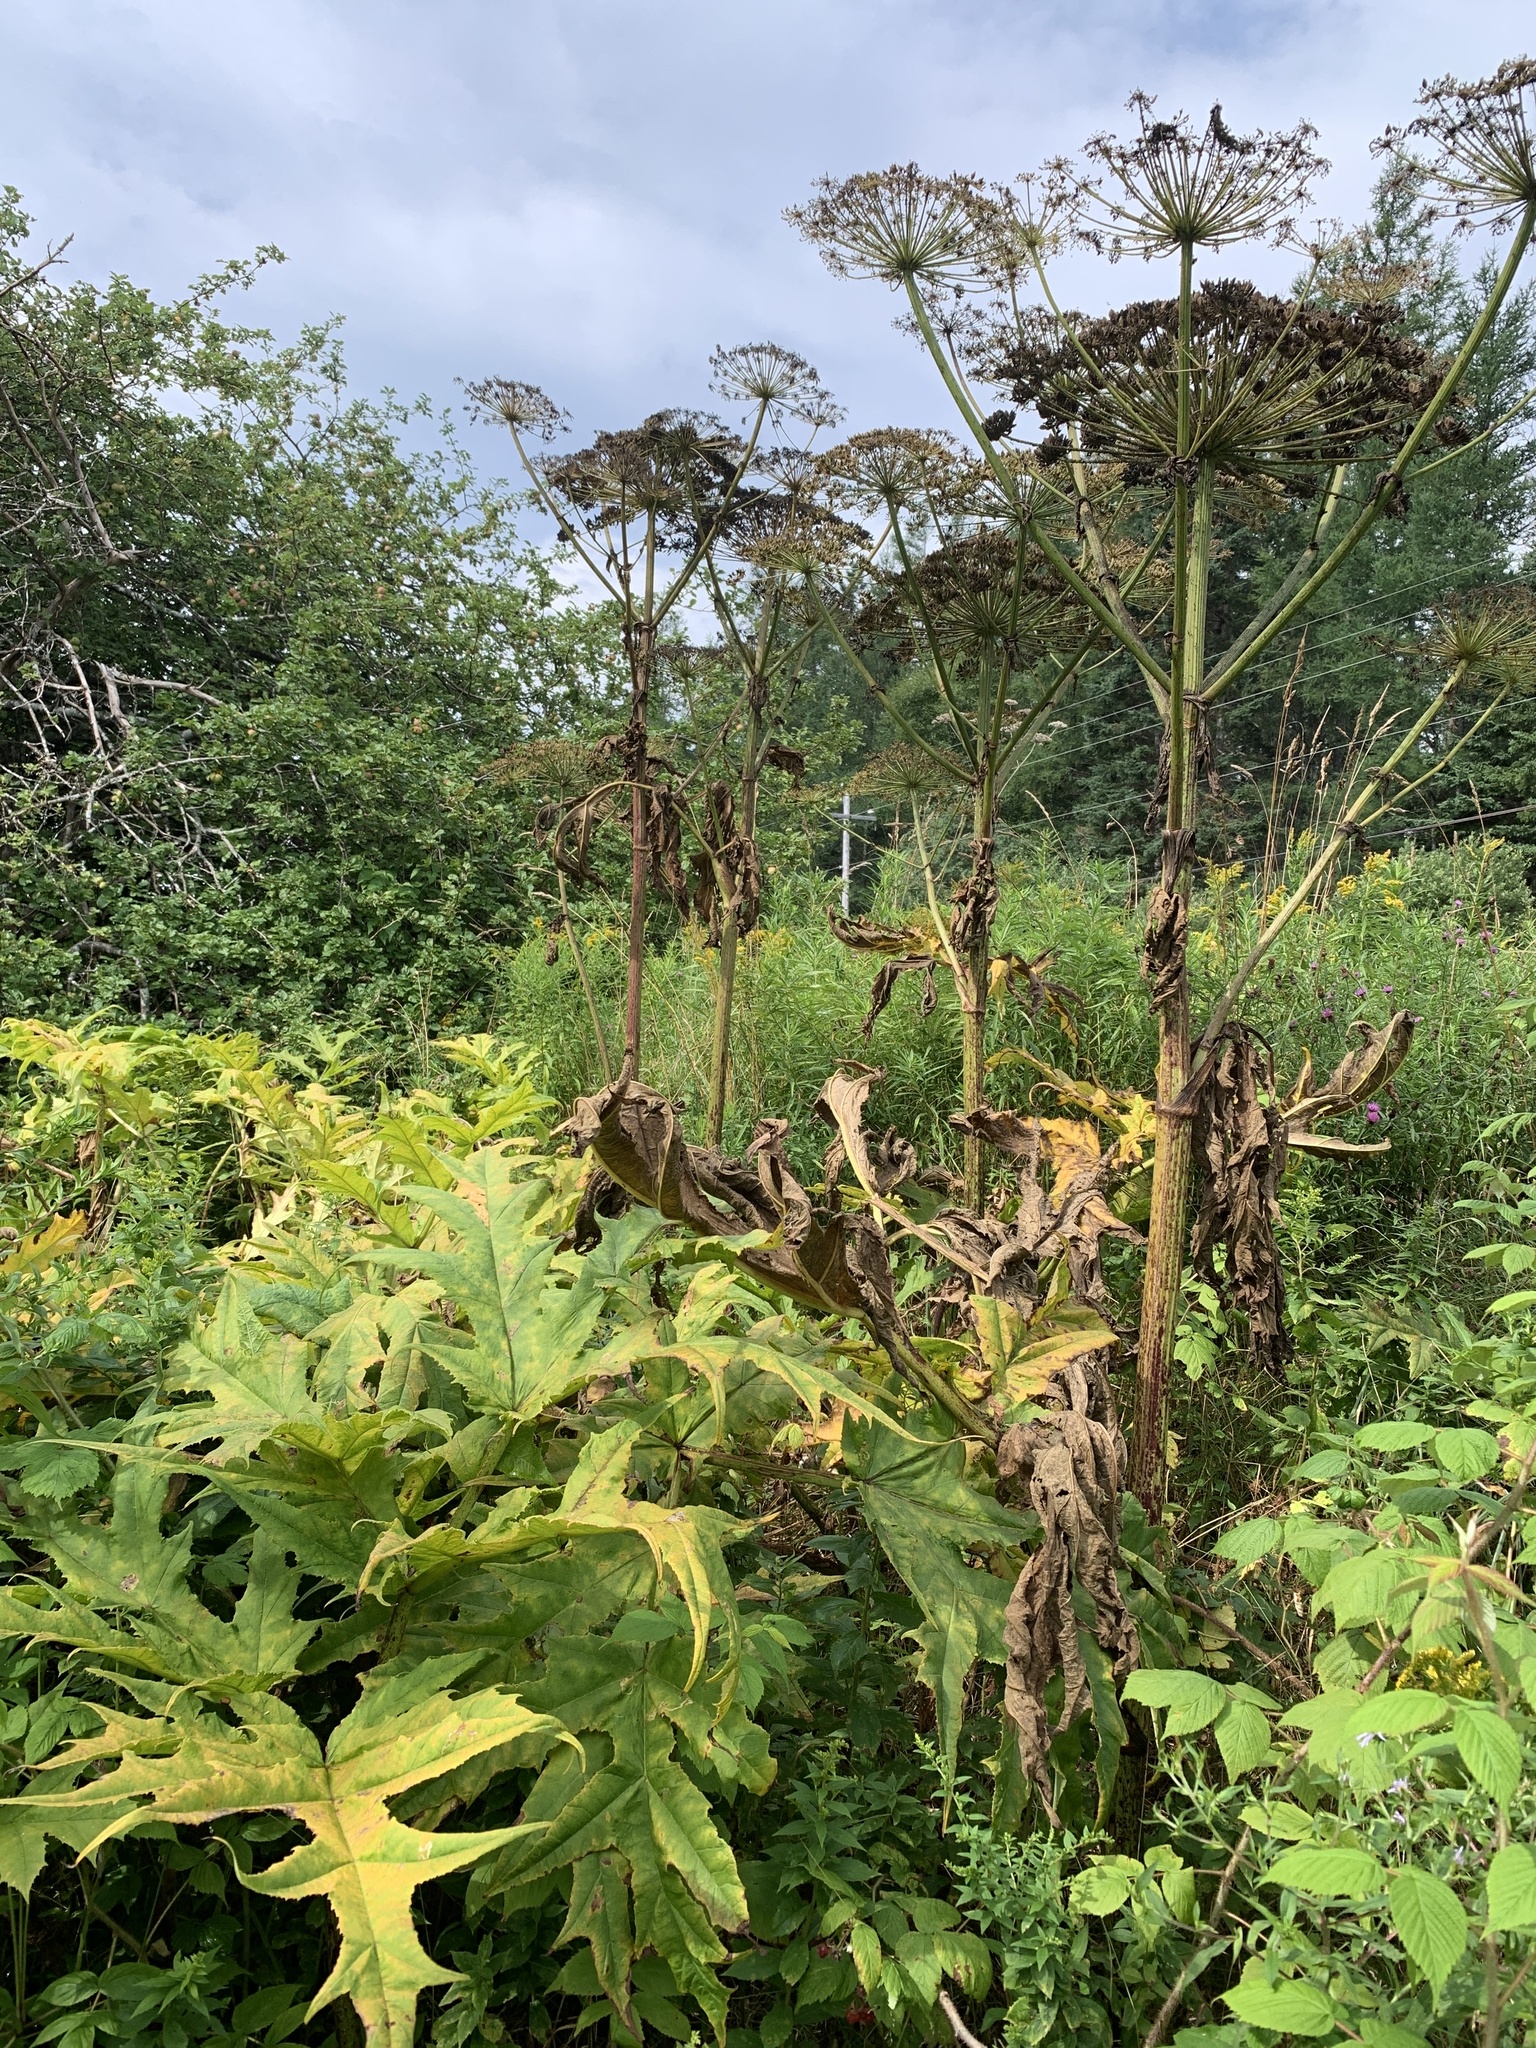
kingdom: Plantae
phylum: Tracheophyta
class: Magnoliopsida
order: Apiales
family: Apiaceae
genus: Heracleum
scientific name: Heracleum mantegazzianum
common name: Giant hogweed
